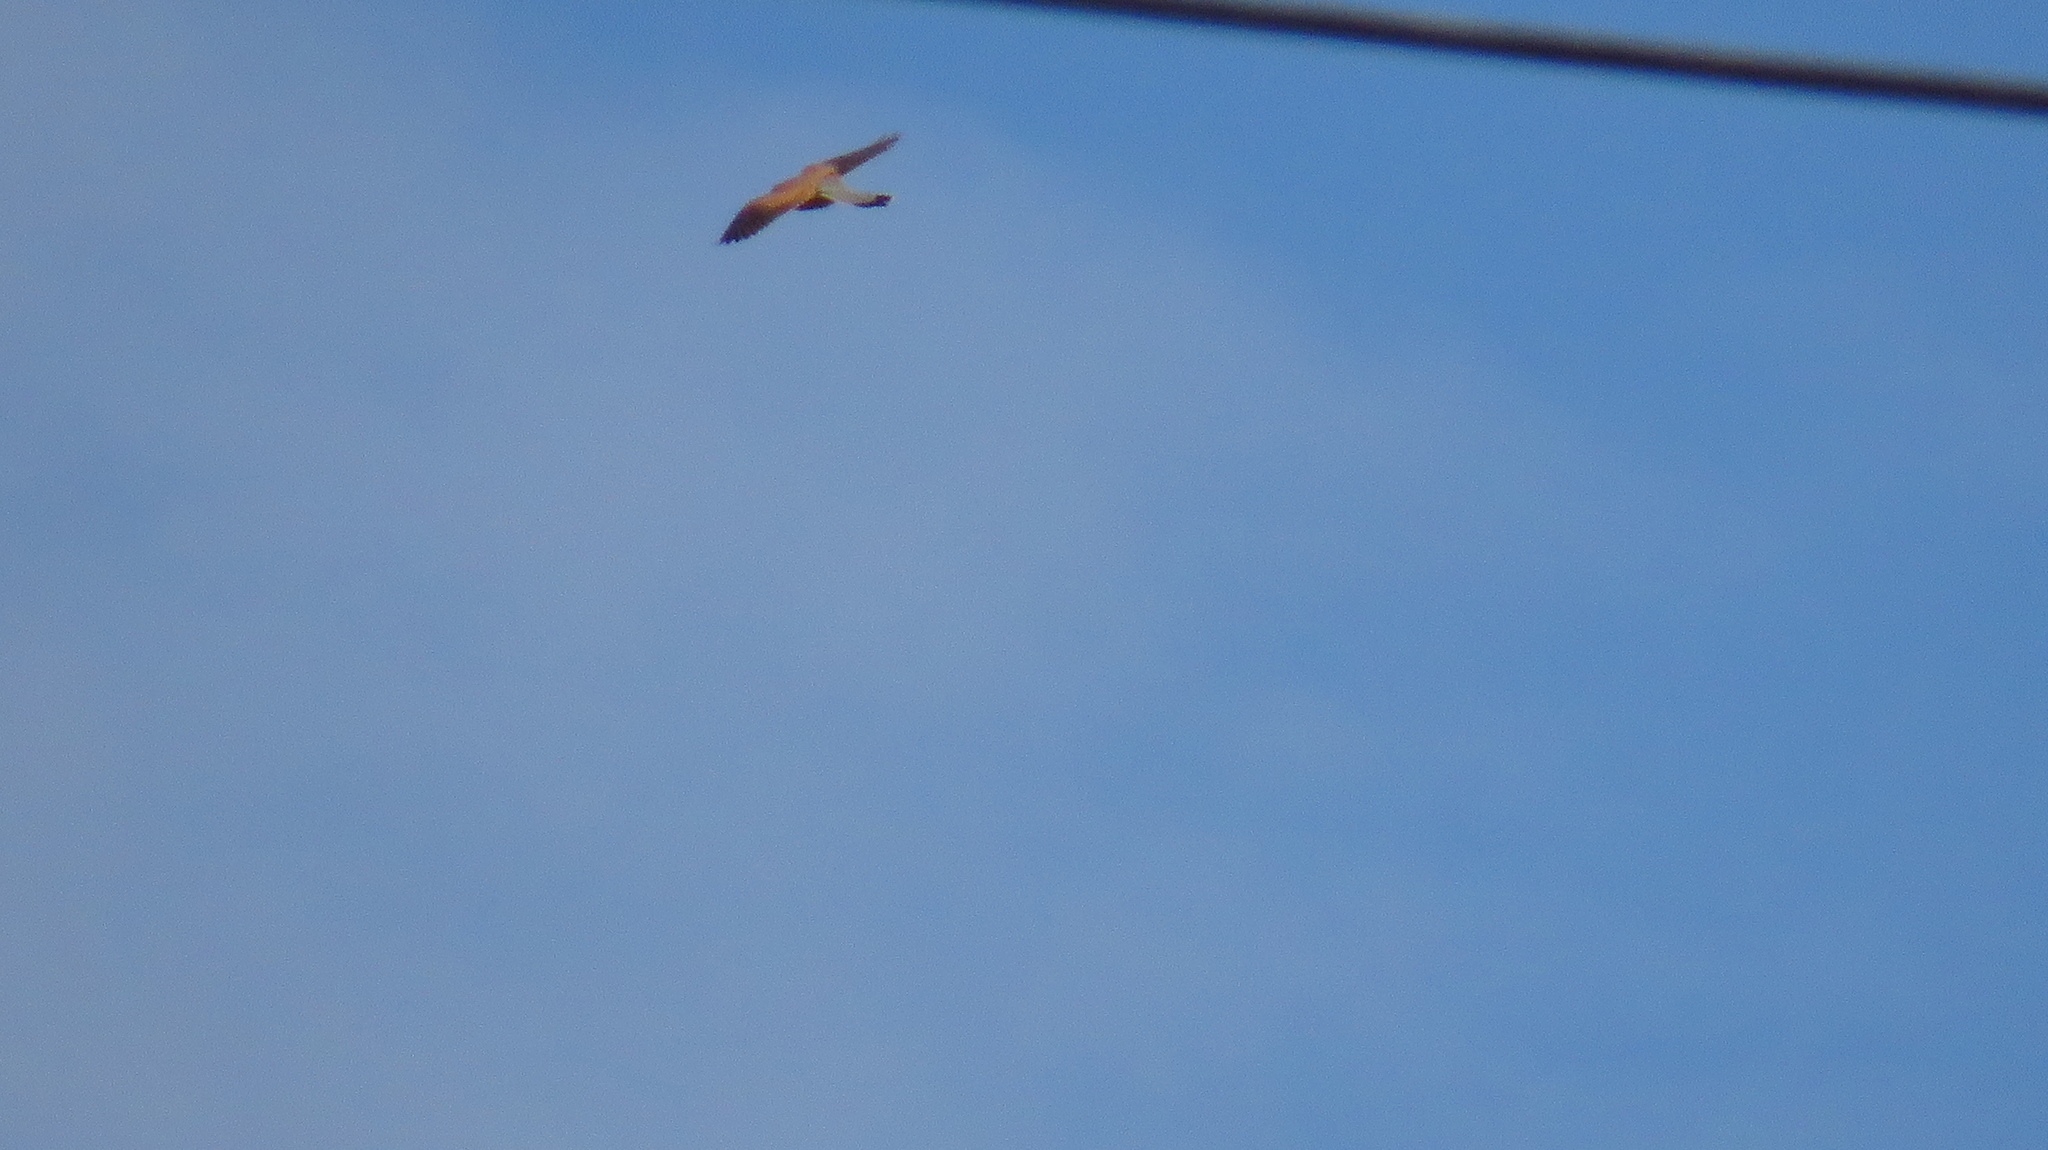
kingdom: Animalia
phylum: Chordata
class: Aves
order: Falconiformes
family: Falconidae
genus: Falco
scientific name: Falco tinnunculus
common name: Common kestrel
